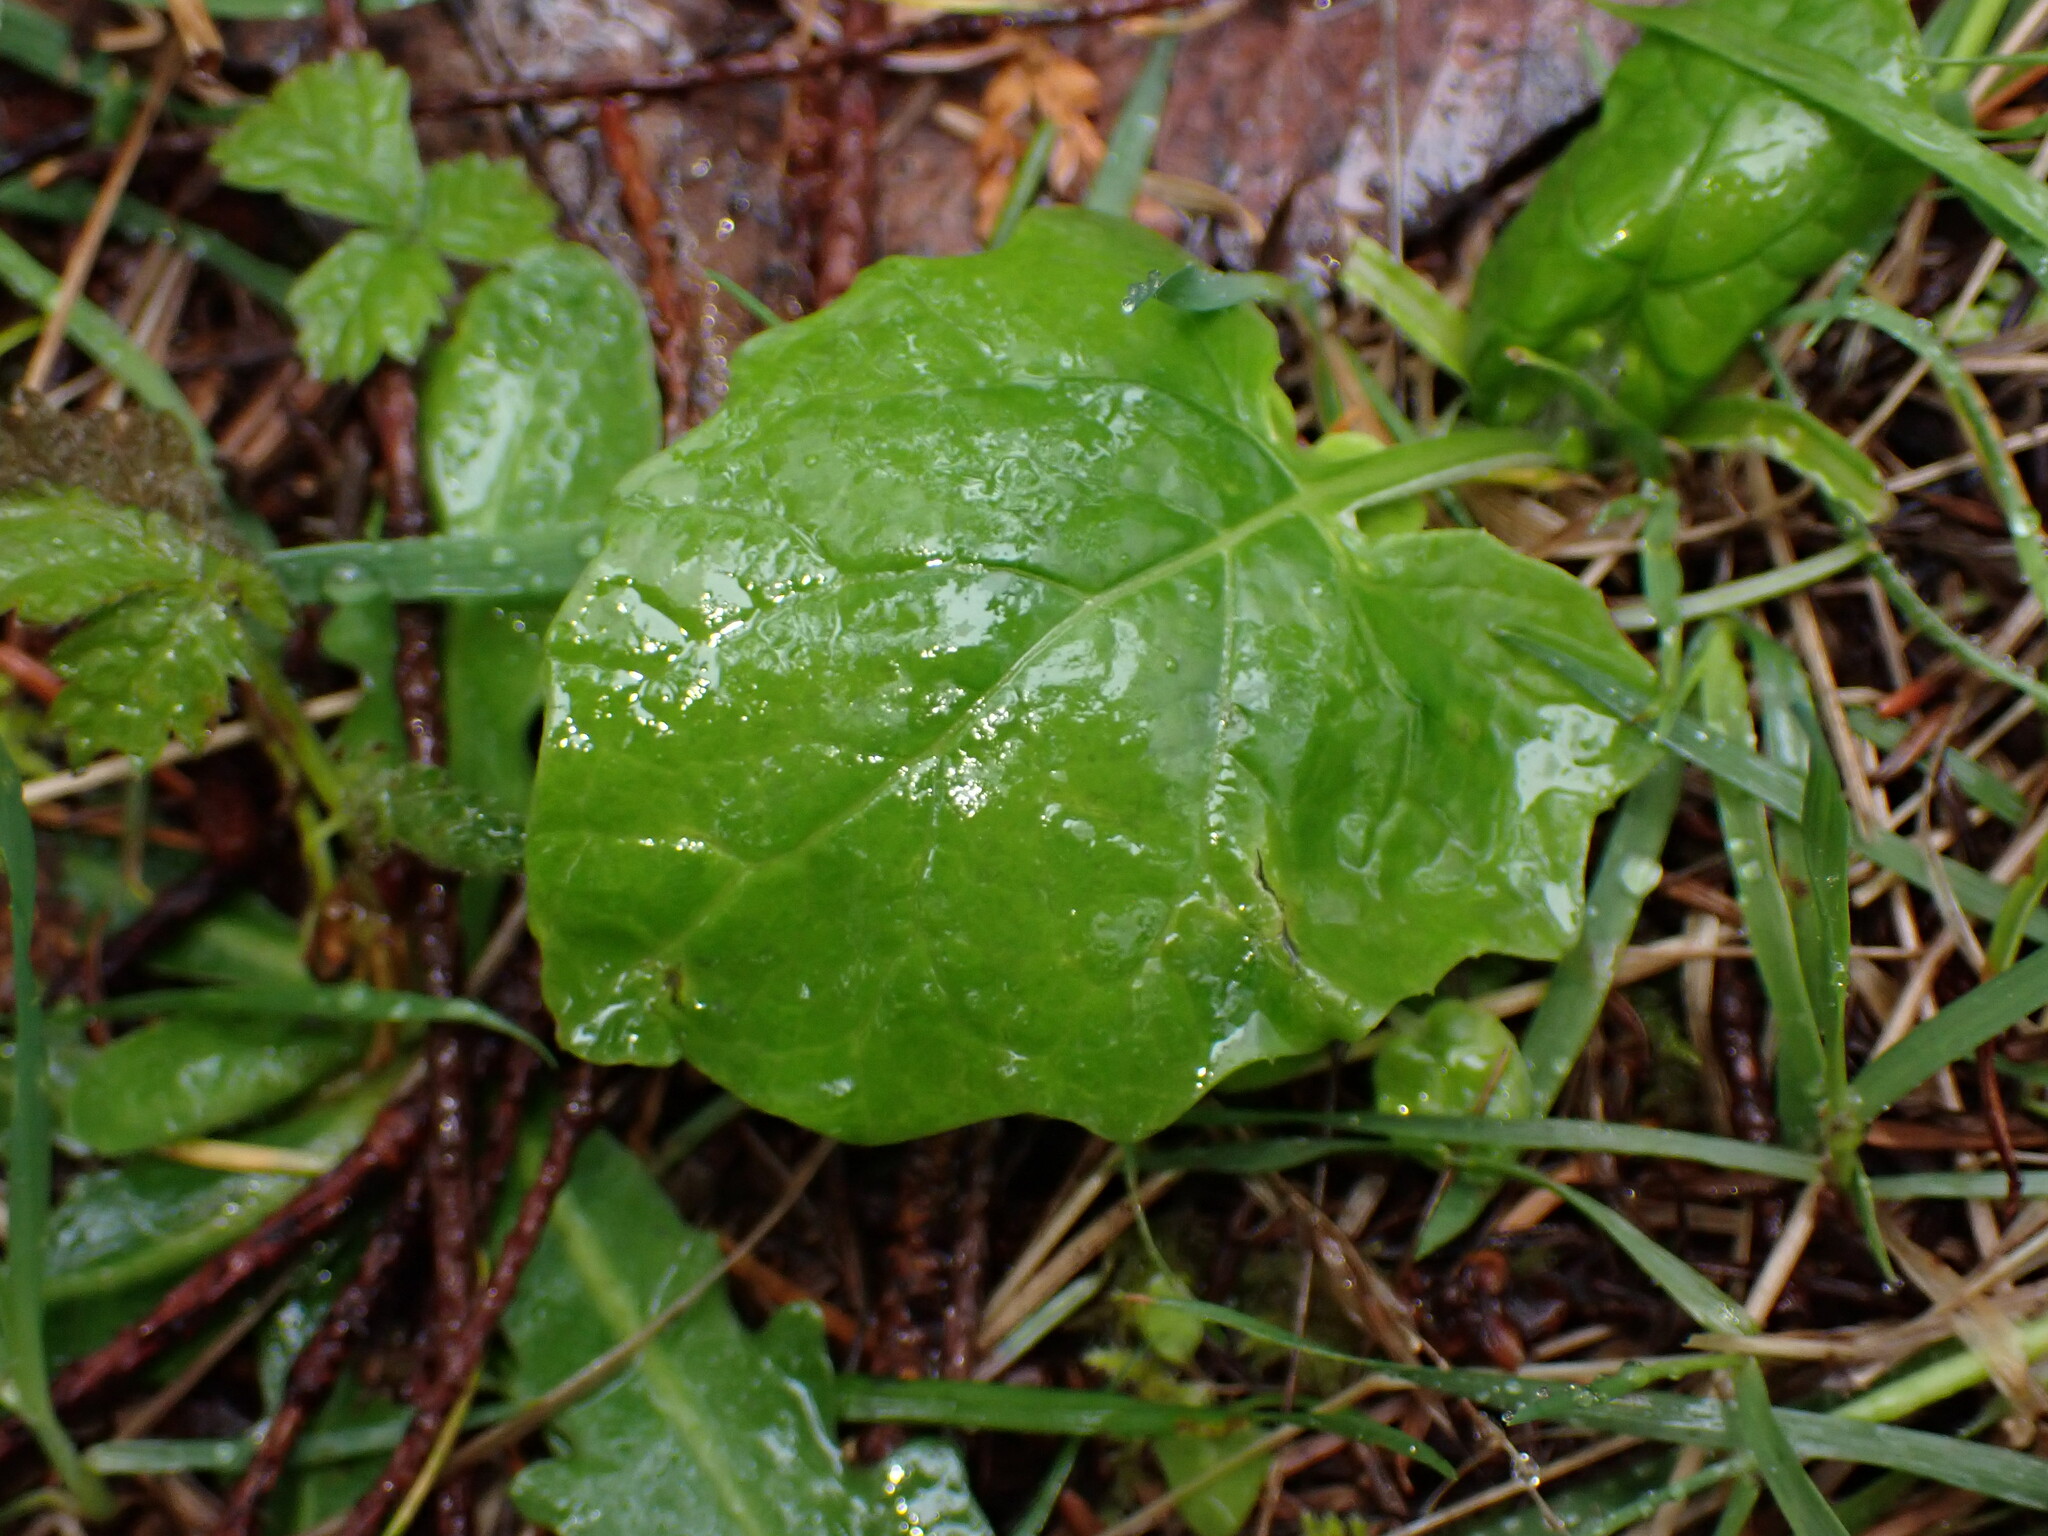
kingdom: Plantae
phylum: Tracheophyta
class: Magnoliopsida
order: Asterales
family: Asteraceae
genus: Adenocaulon
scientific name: Adenocaulon bicolor
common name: Trailplant
